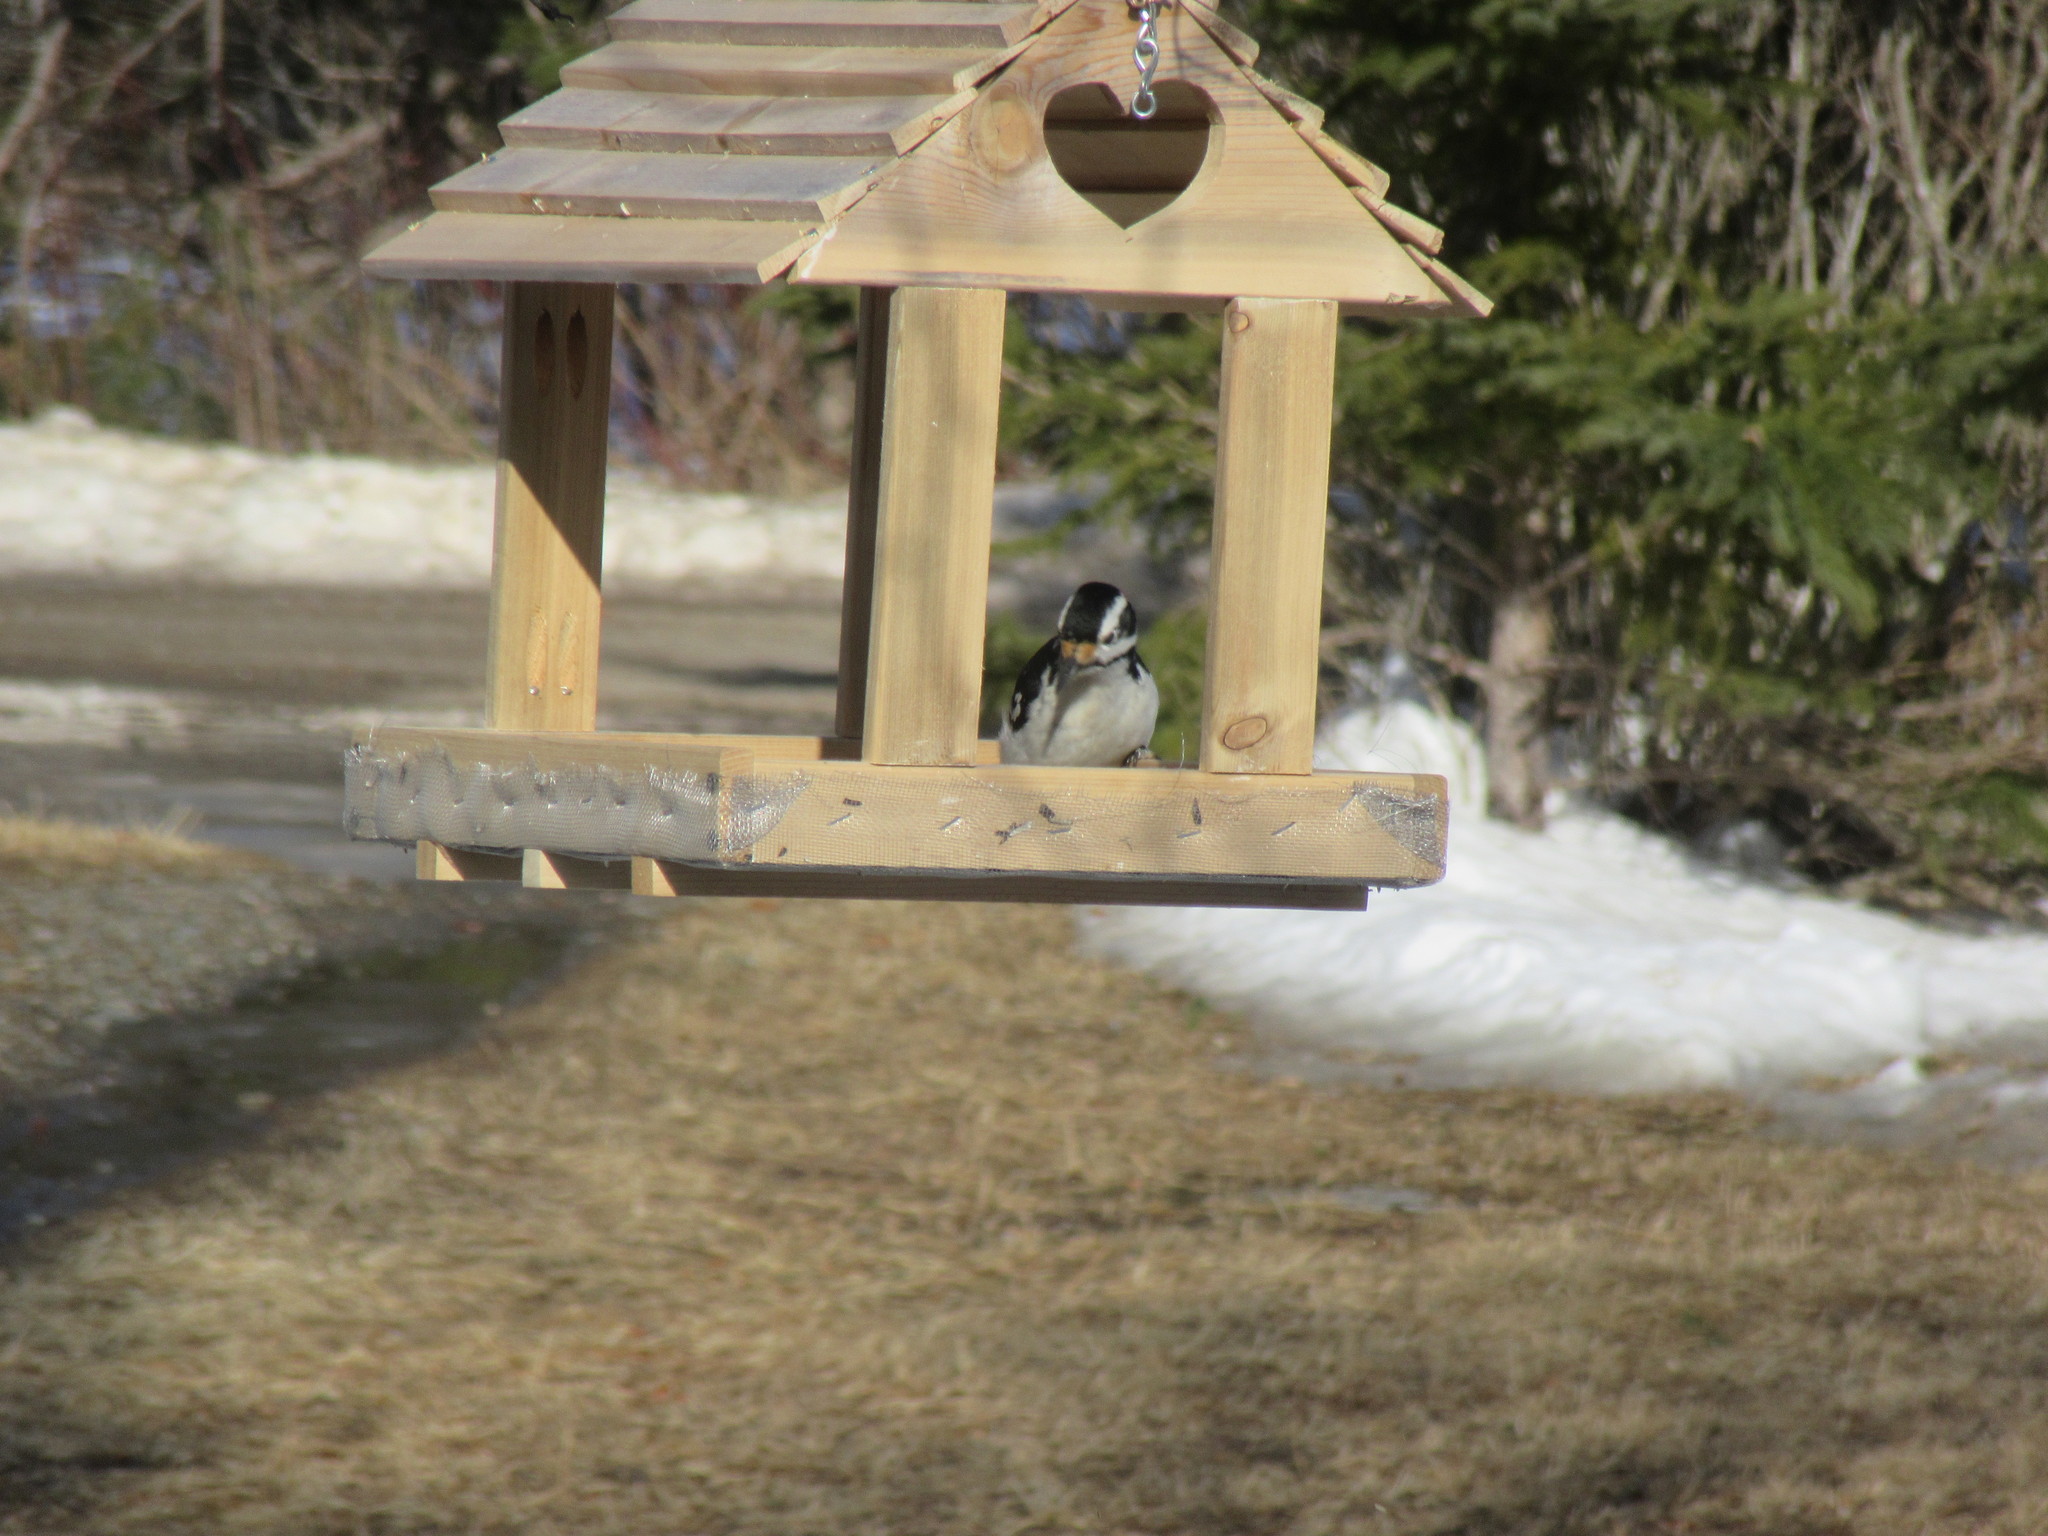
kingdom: Animalia
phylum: Chordata
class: Aves
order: Piciformes
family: Picidae
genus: Leuconotopicus
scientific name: Leuconotopicus villosus
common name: Hairy woodpecker
